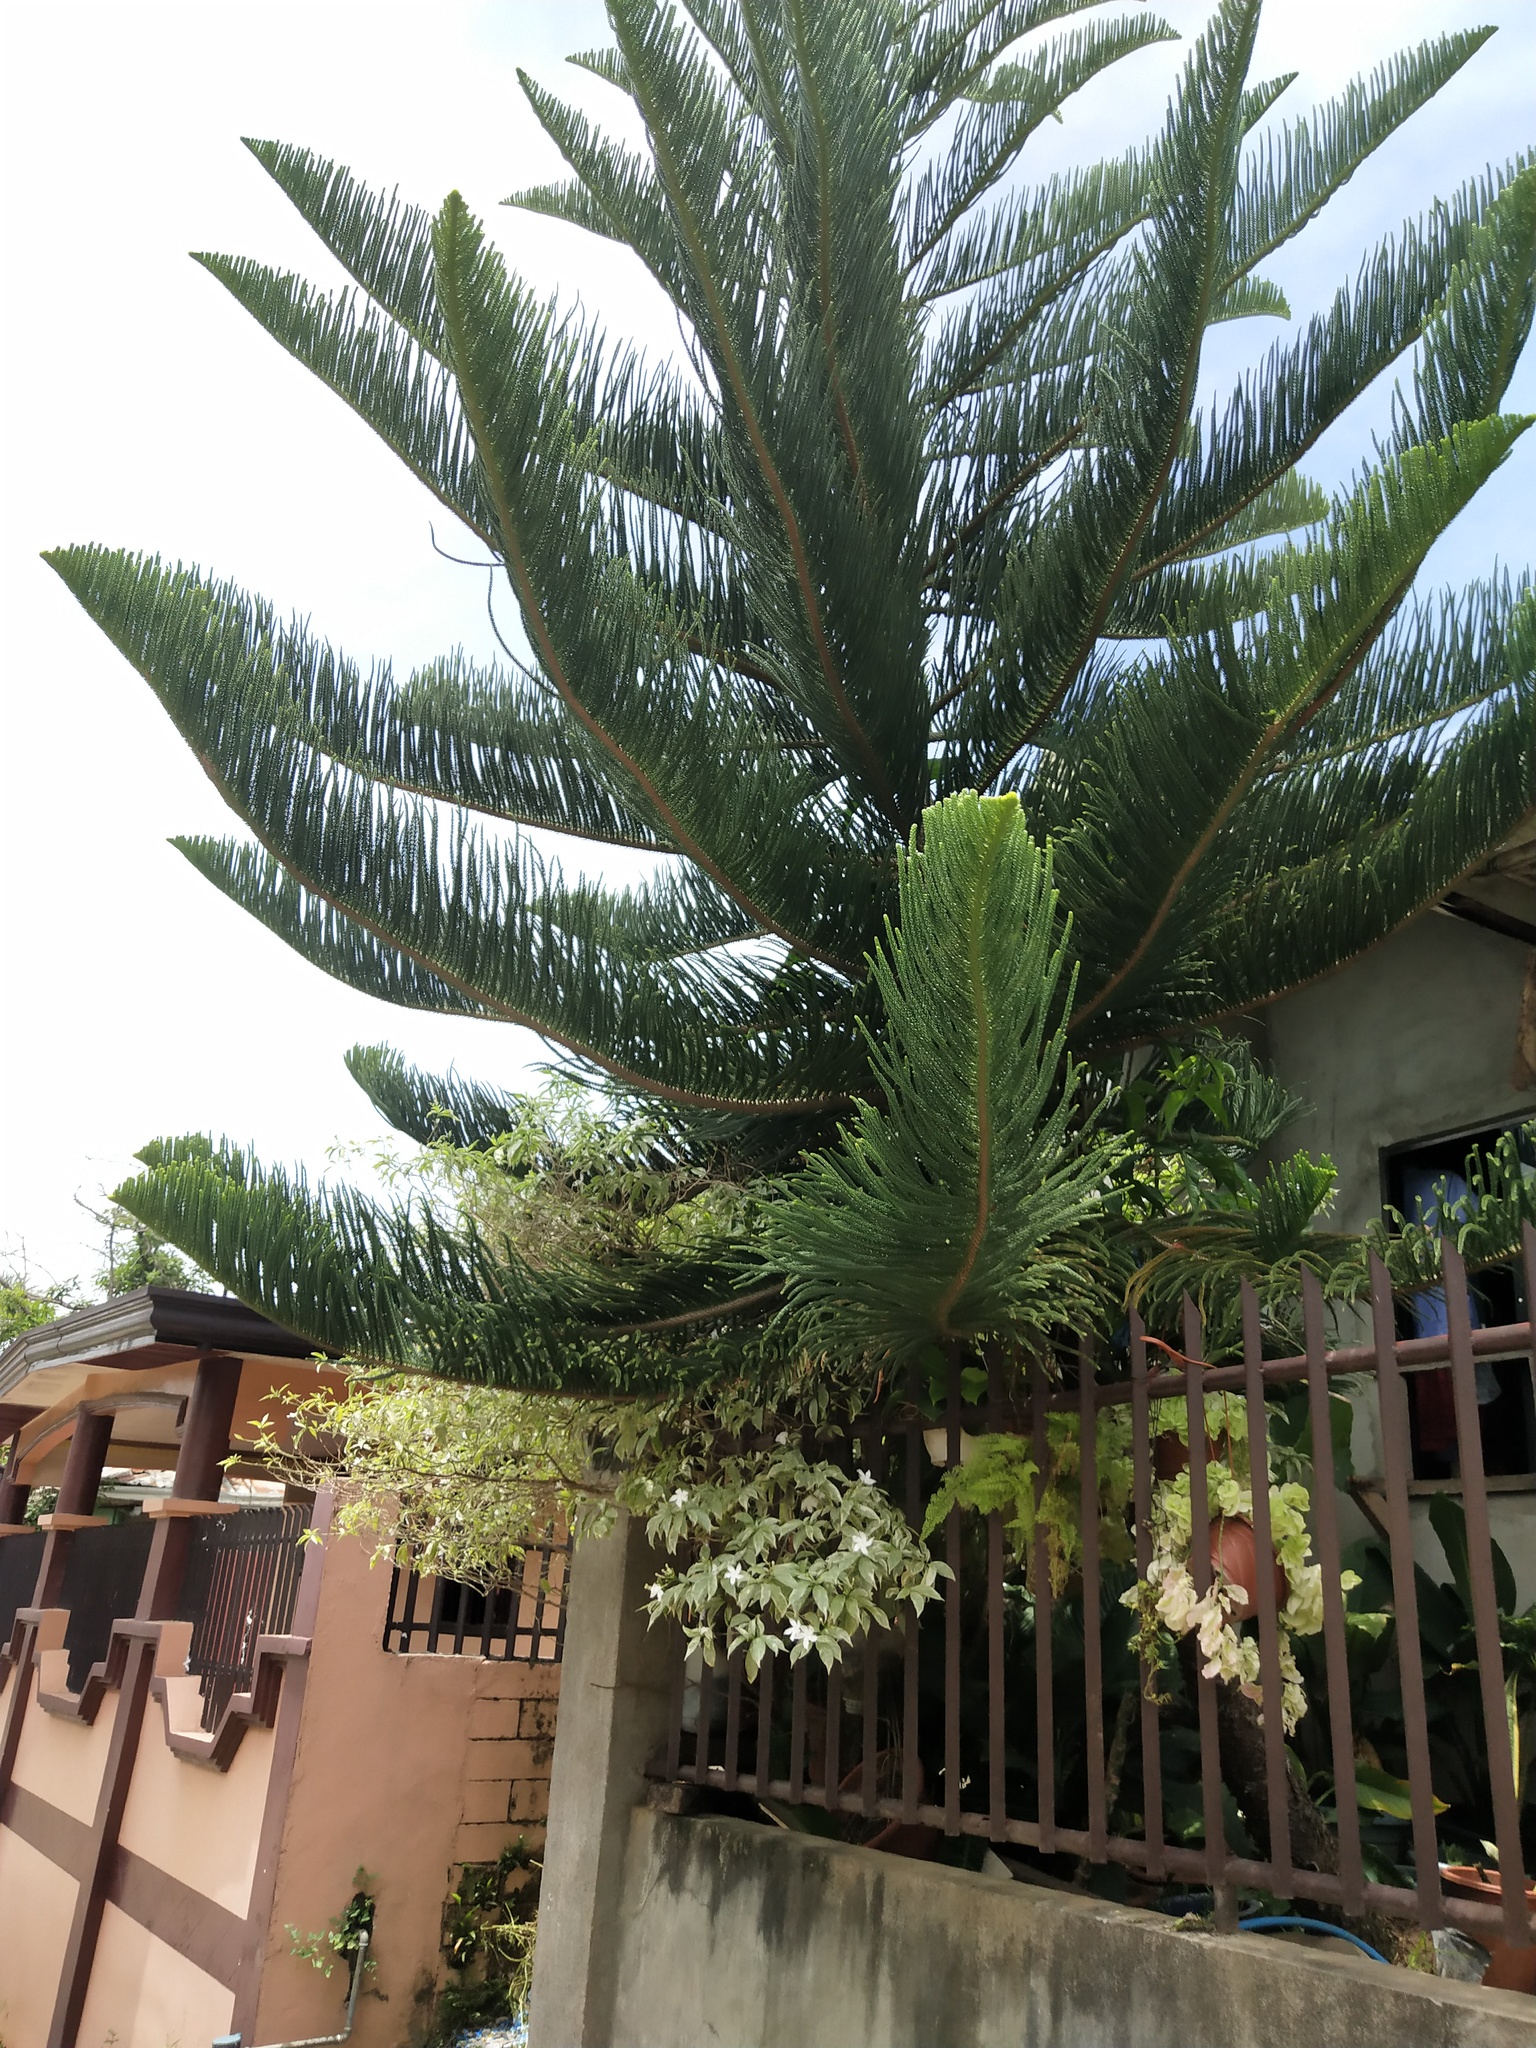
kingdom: Plantae
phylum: Tracheophyta
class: Pinopsida
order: Pinales
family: Araucariaceae
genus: Araucaria
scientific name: Araucaria heterophylla
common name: Norfolk island pine
